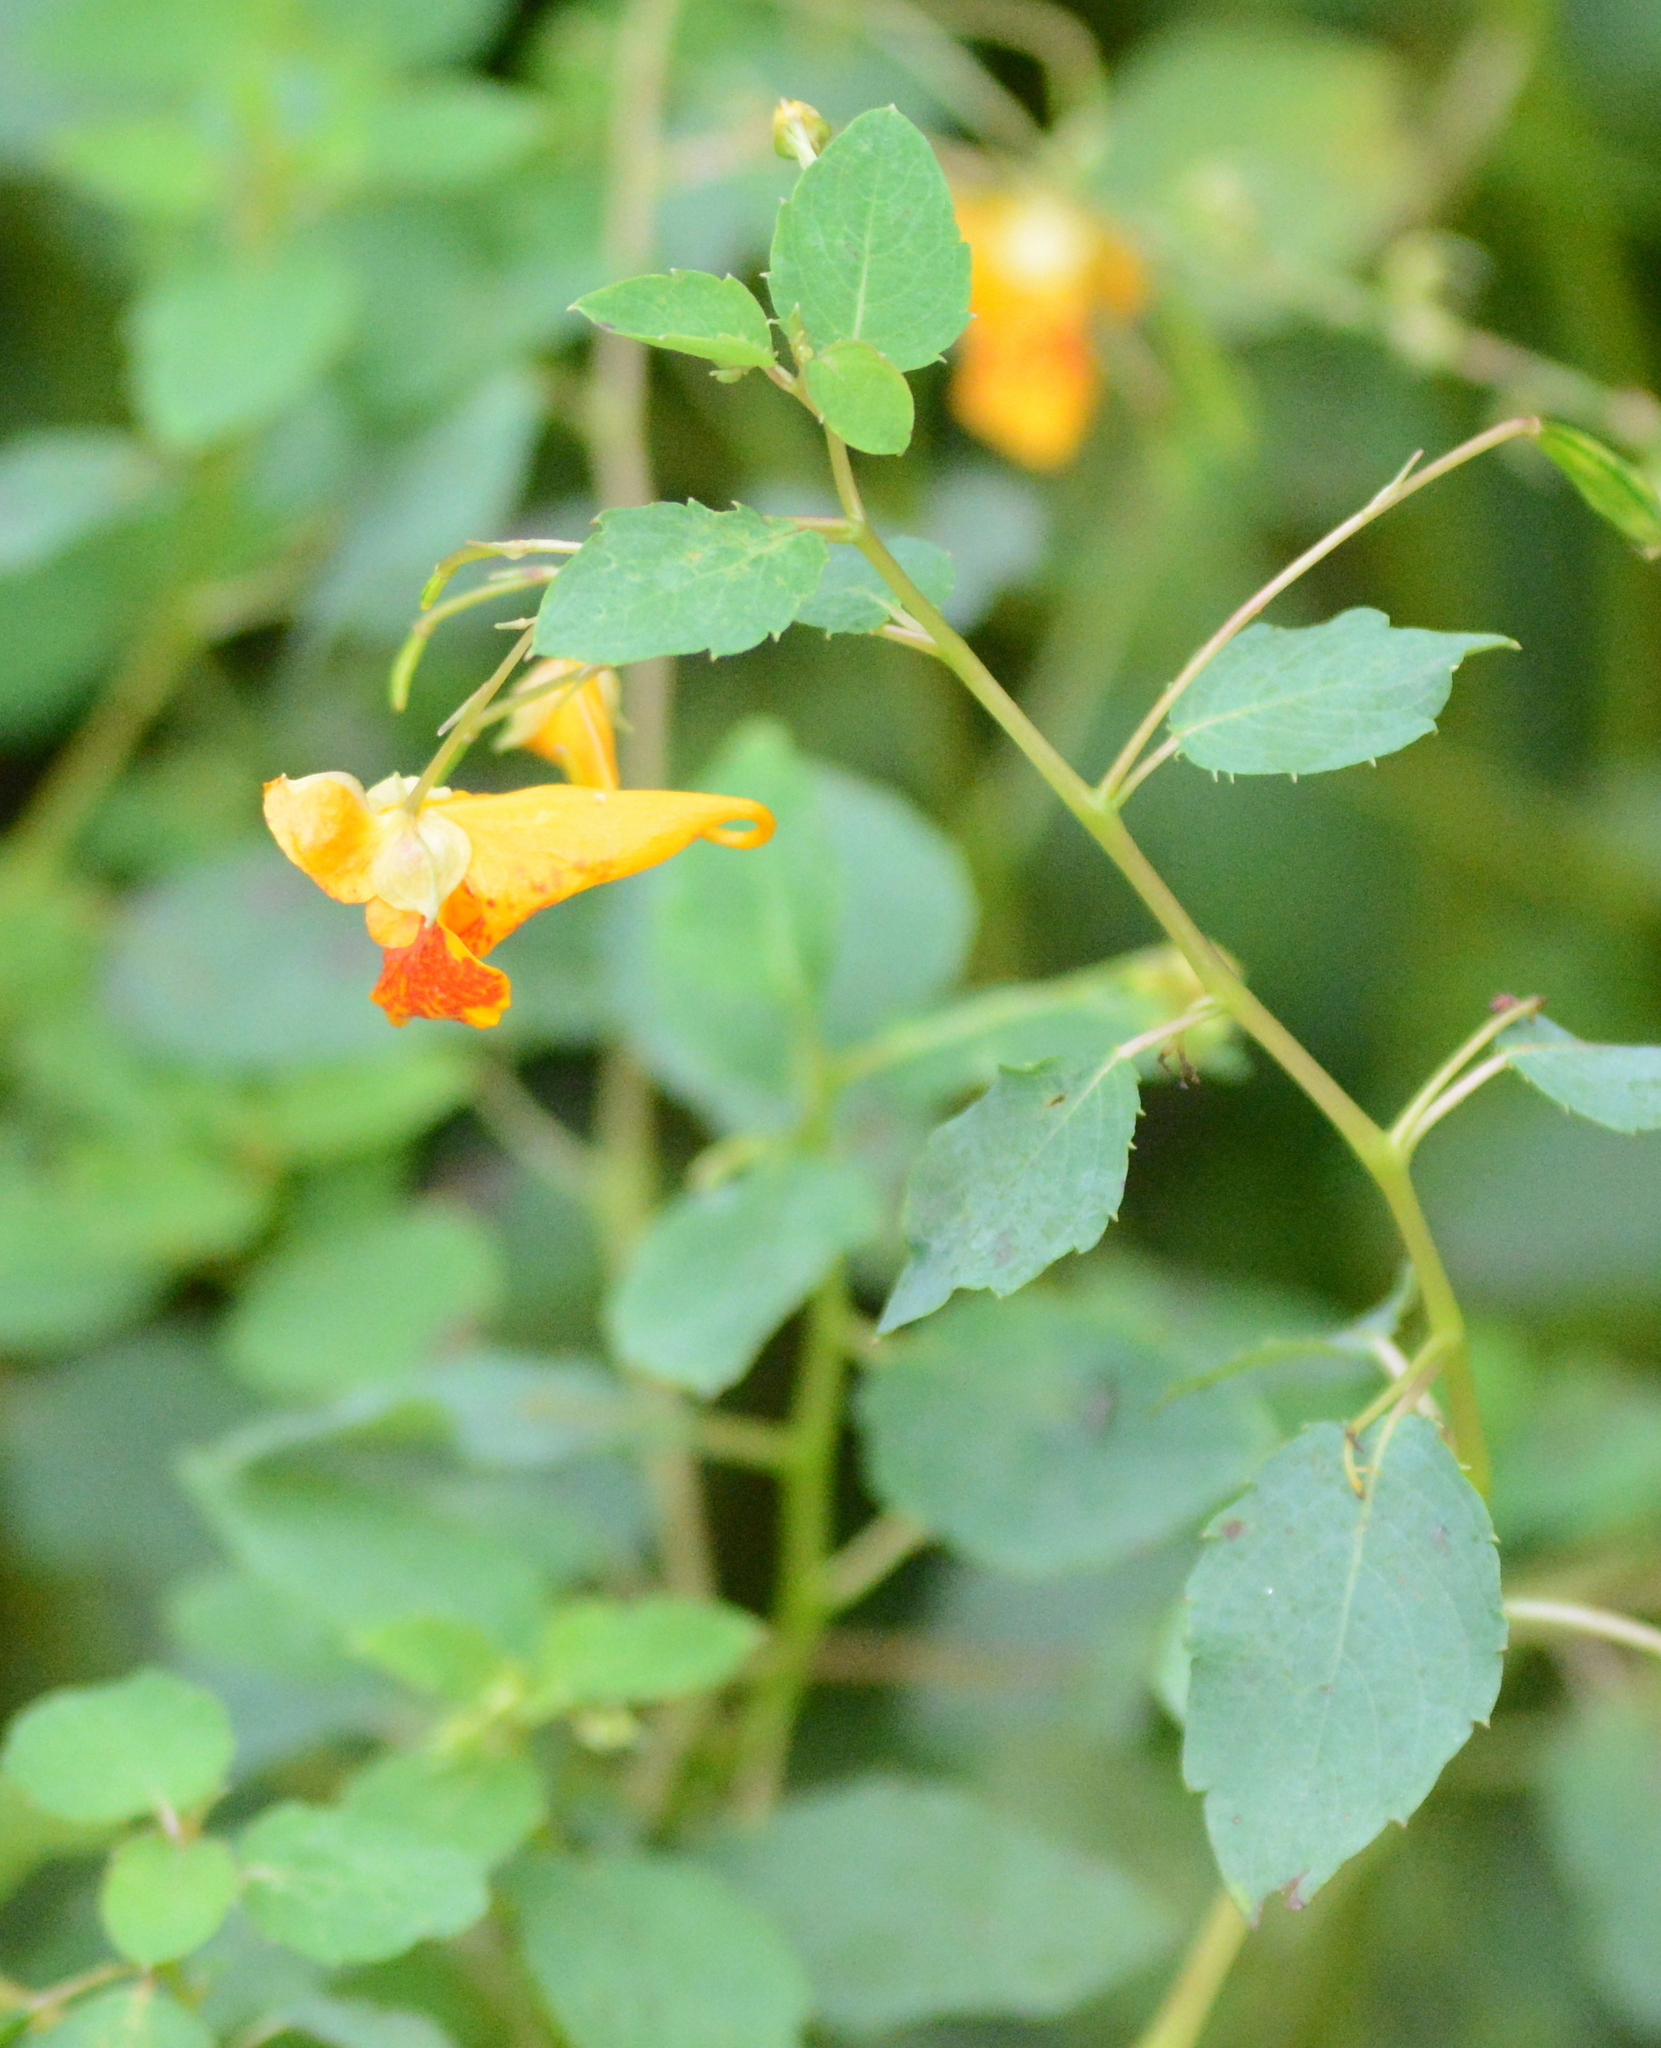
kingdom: Plantae
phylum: Tracheophyta
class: Magnoliopsida
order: Ericales
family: Balsaminaceae
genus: Impatiens
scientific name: Impatiens capensis
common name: Orange balsam
